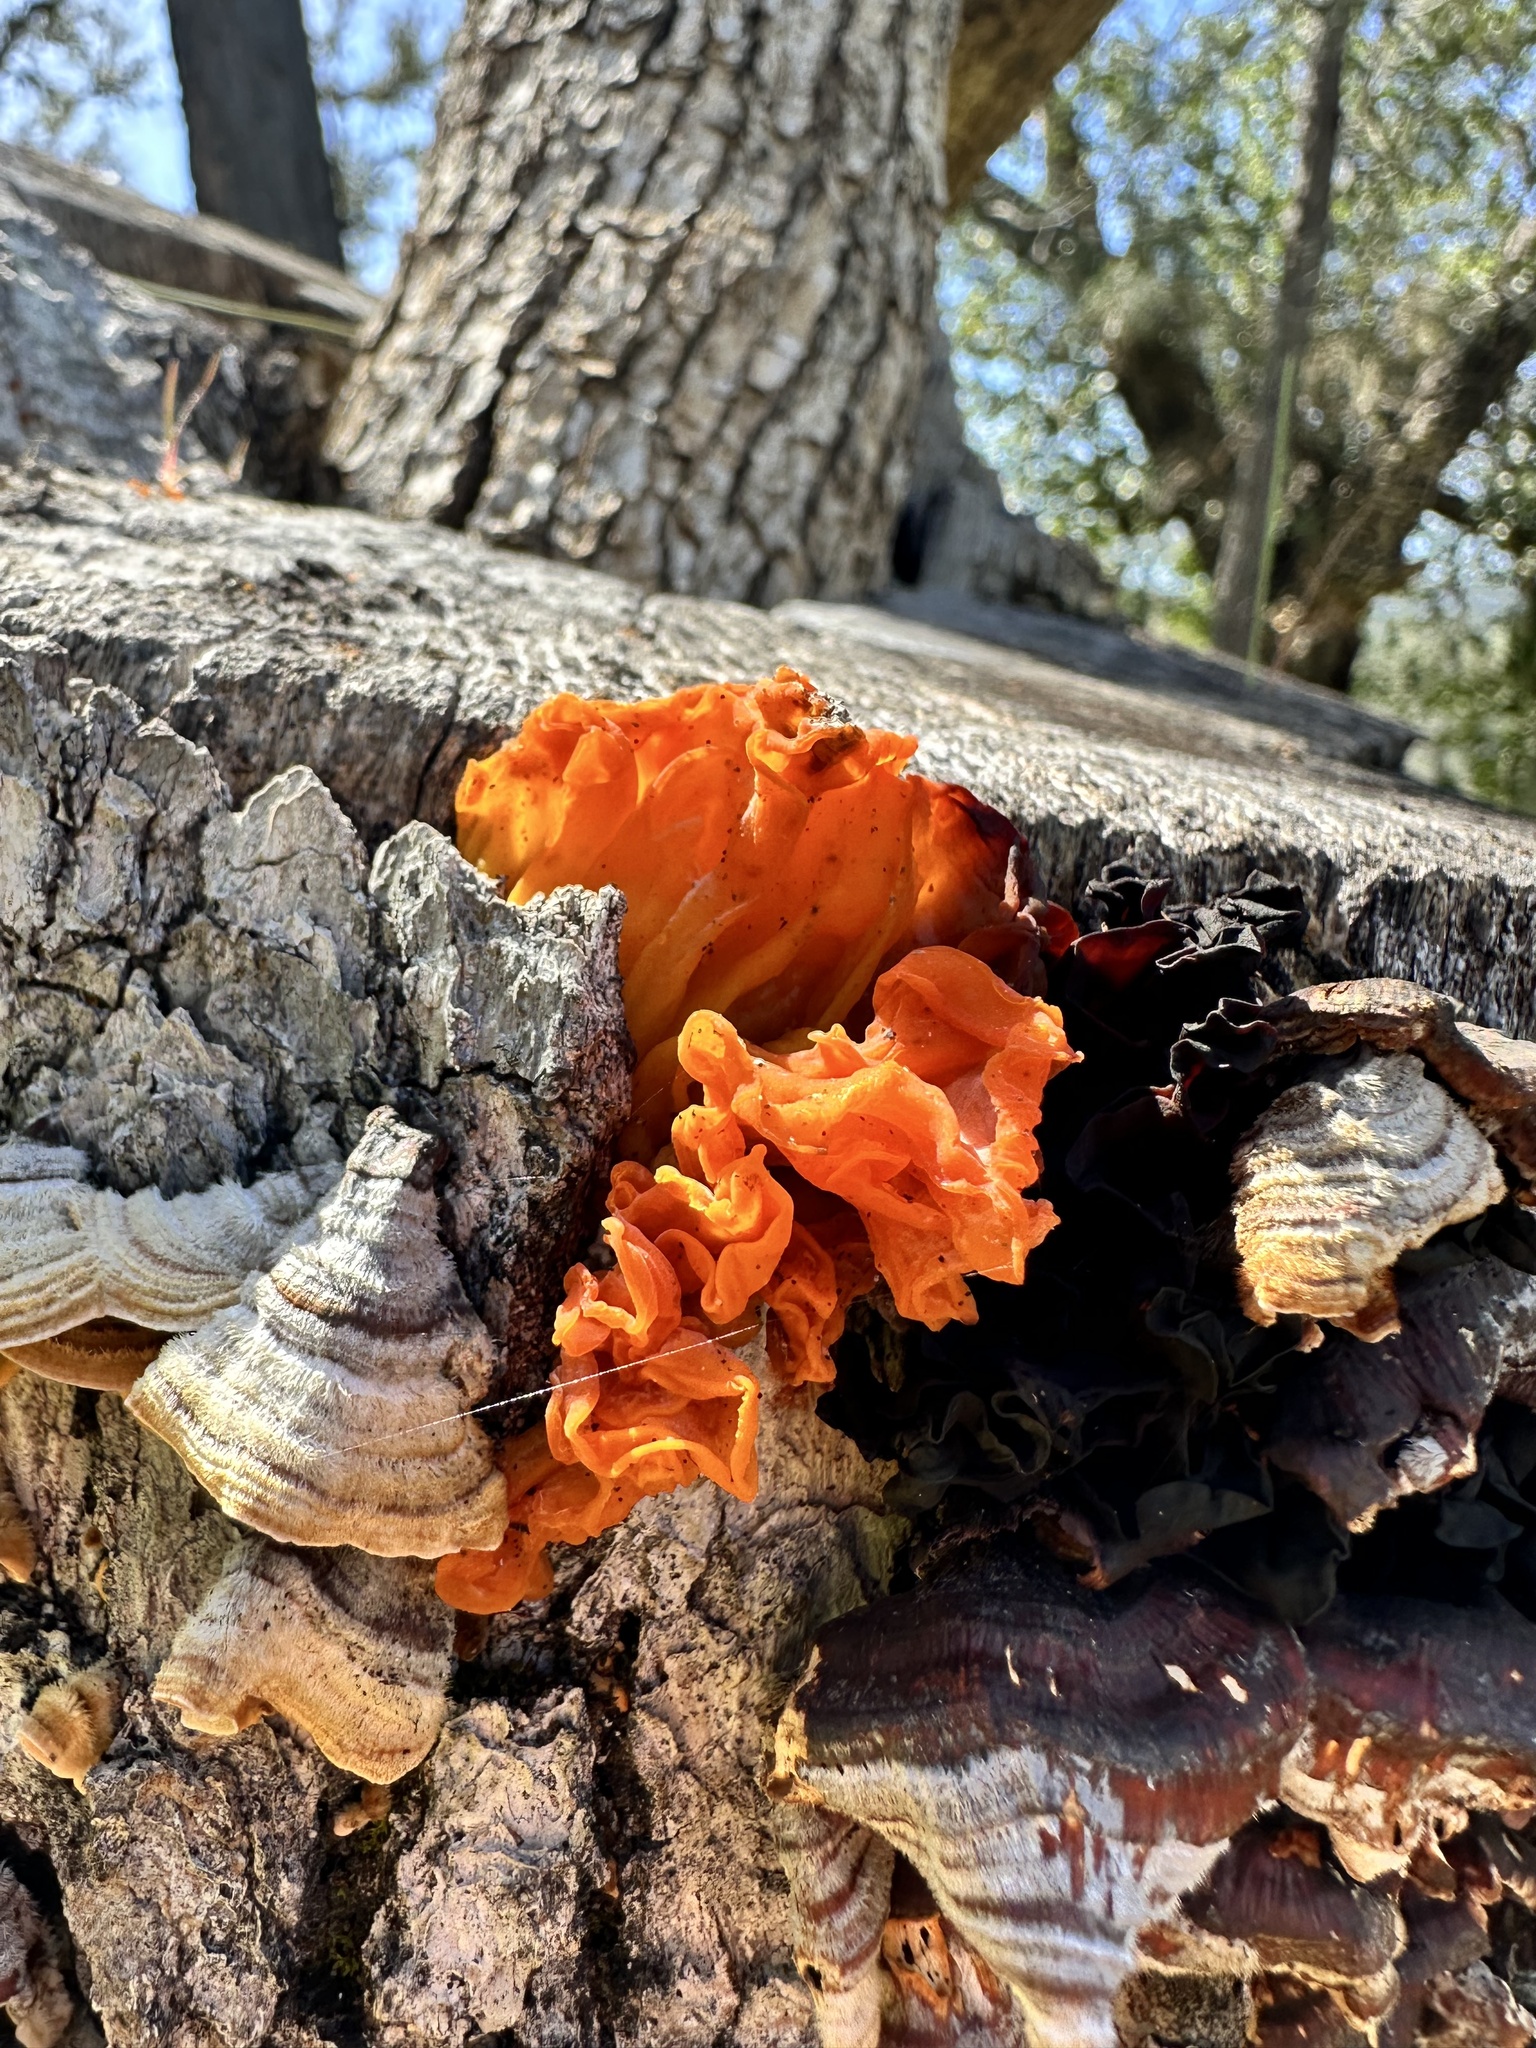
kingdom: Fungi
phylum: Basidiomycota
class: Tremellomycetes
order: Tremellales
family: Naemateliaceae
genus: Naematelia
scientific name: Naematelia aurantia
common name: Golden ear
